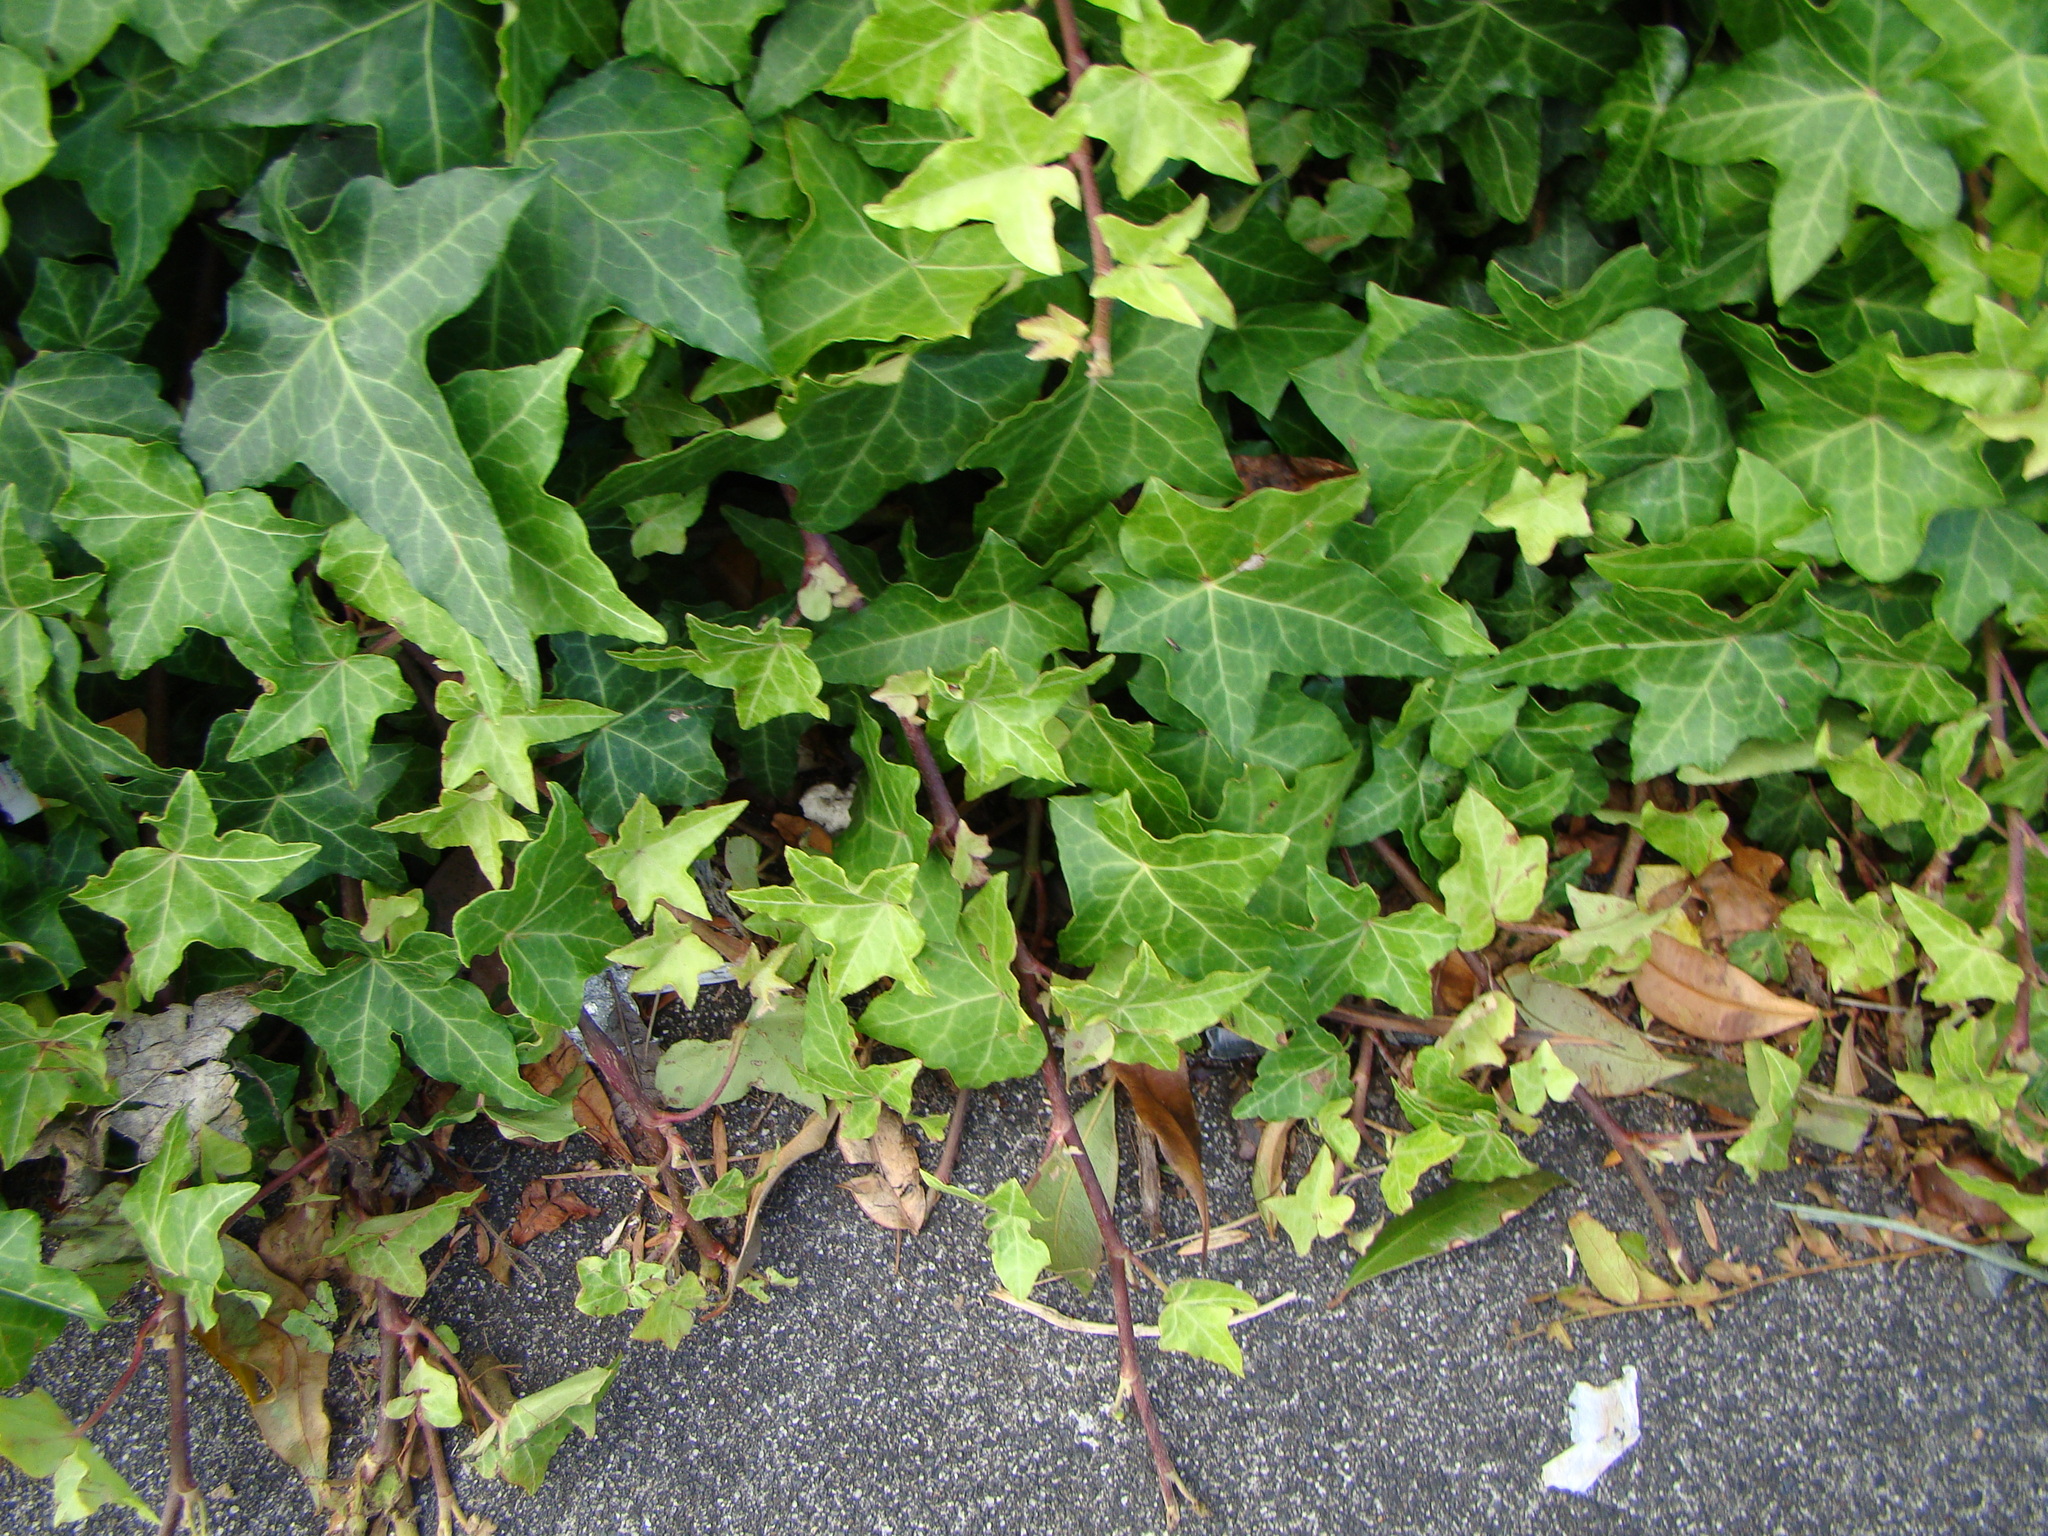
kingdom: Plantae
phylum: Tracheophyta
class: Magnoliopsida
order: Apiales
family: Araliaceae
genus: Hedera
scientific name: Hedera helix
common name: Ivy
